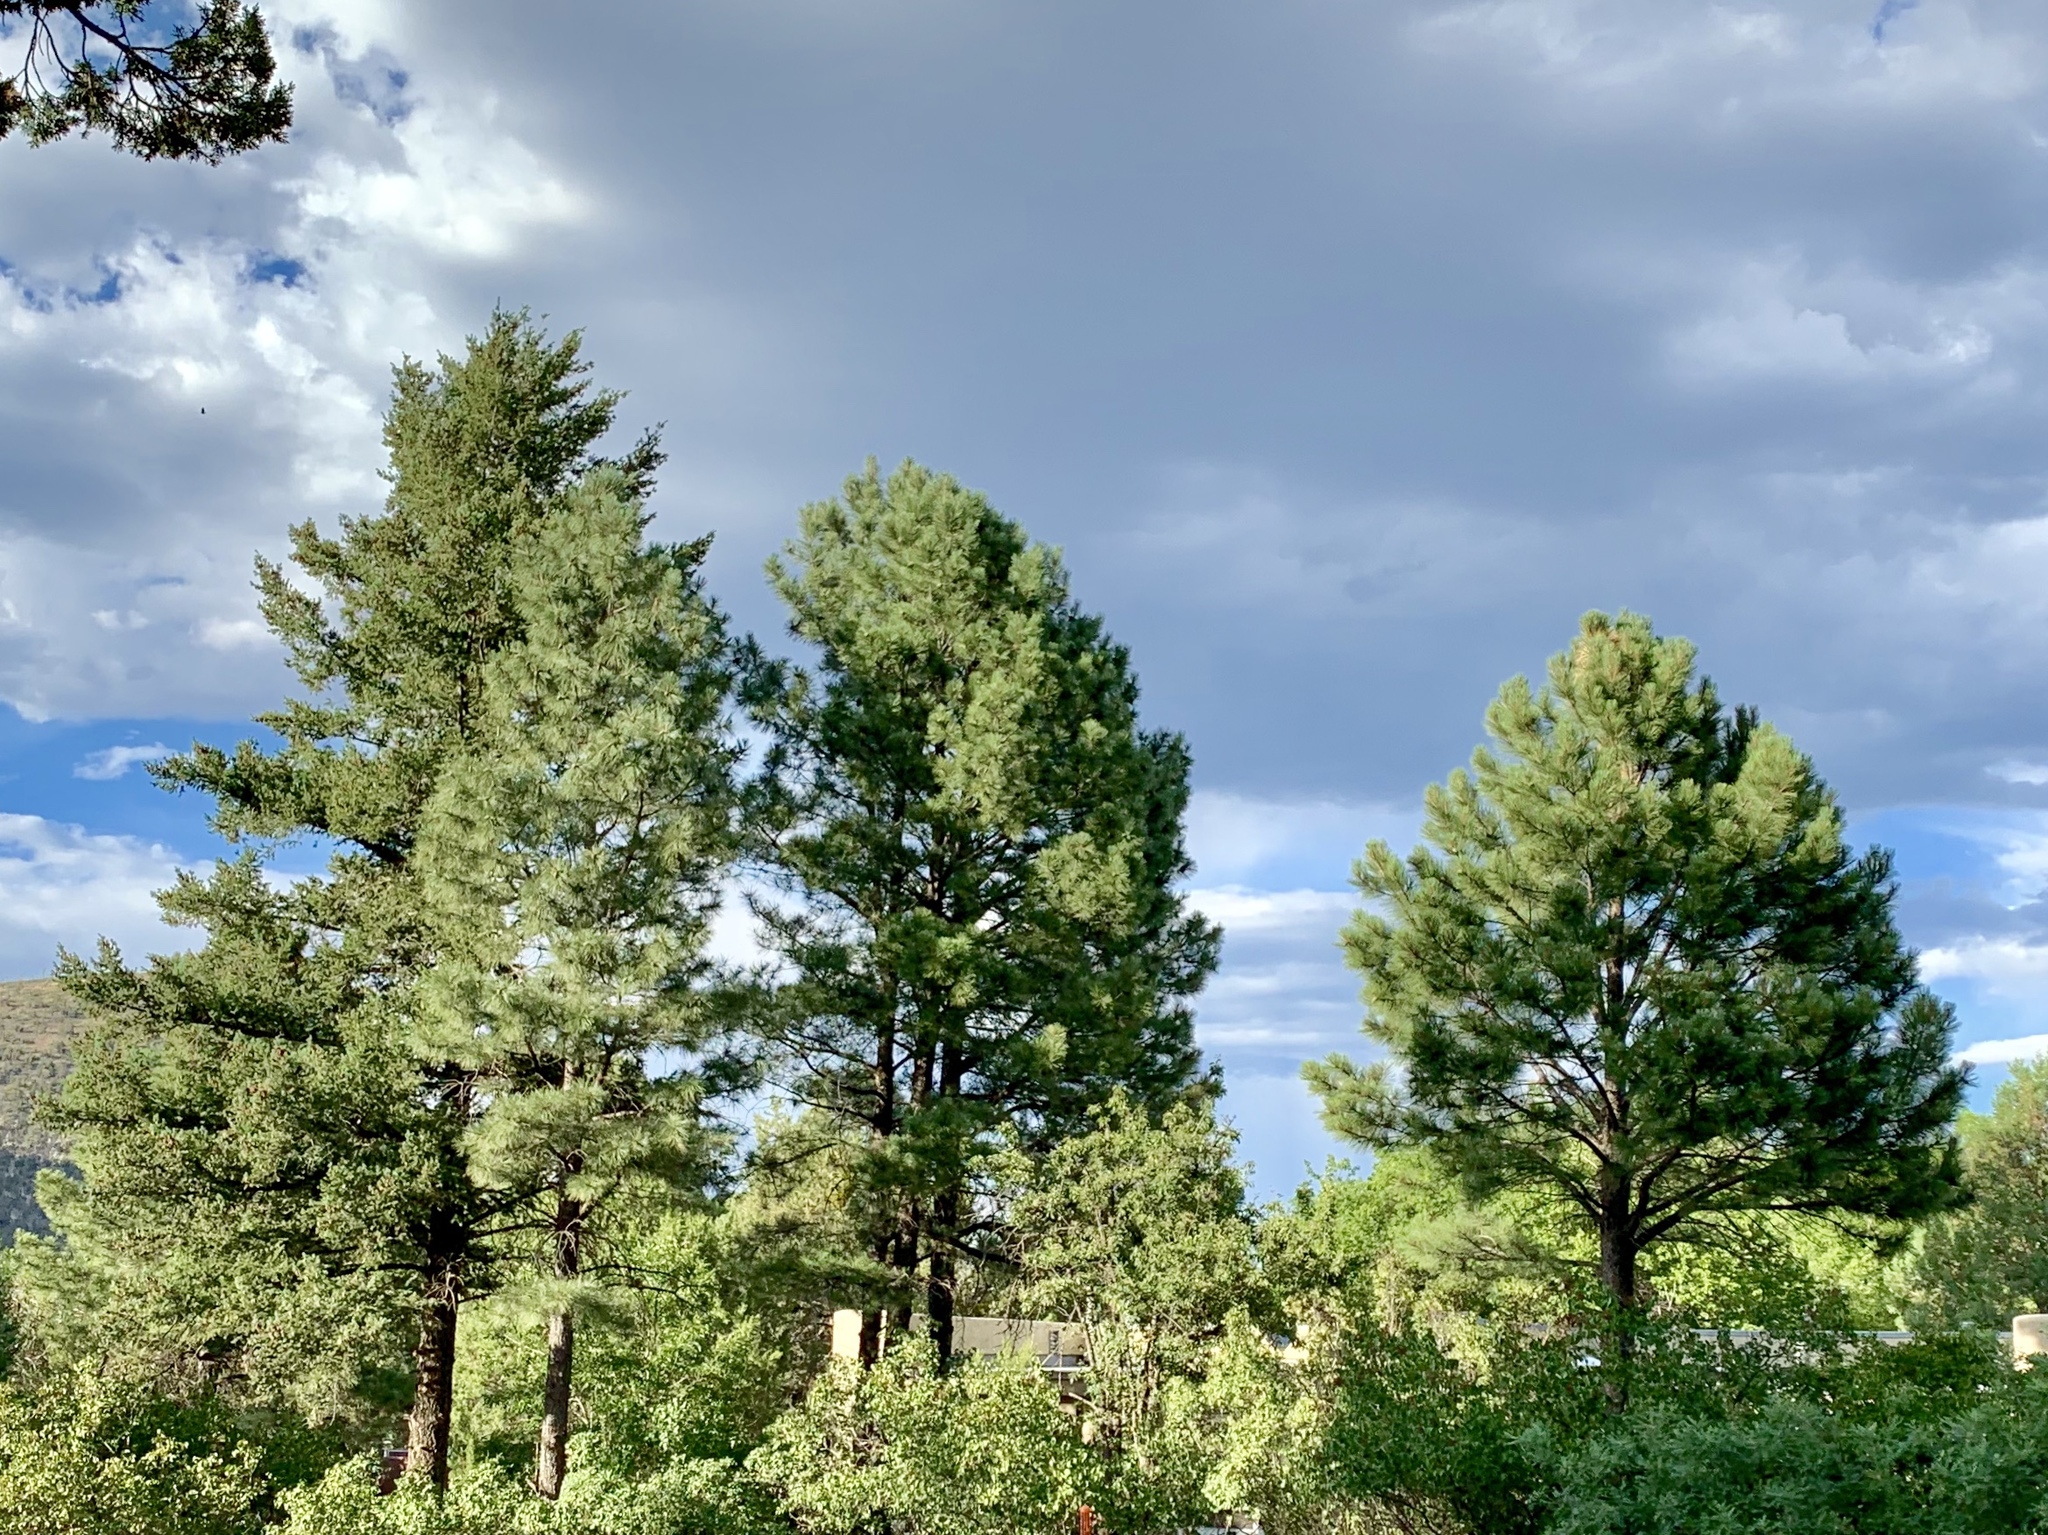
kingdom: Plantae
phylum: Tracheophyta
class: Pinopsida
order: Pinales
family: Pinaceae
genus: Pinus
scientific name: Pinus ponderosa
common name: Western yellow-pine
